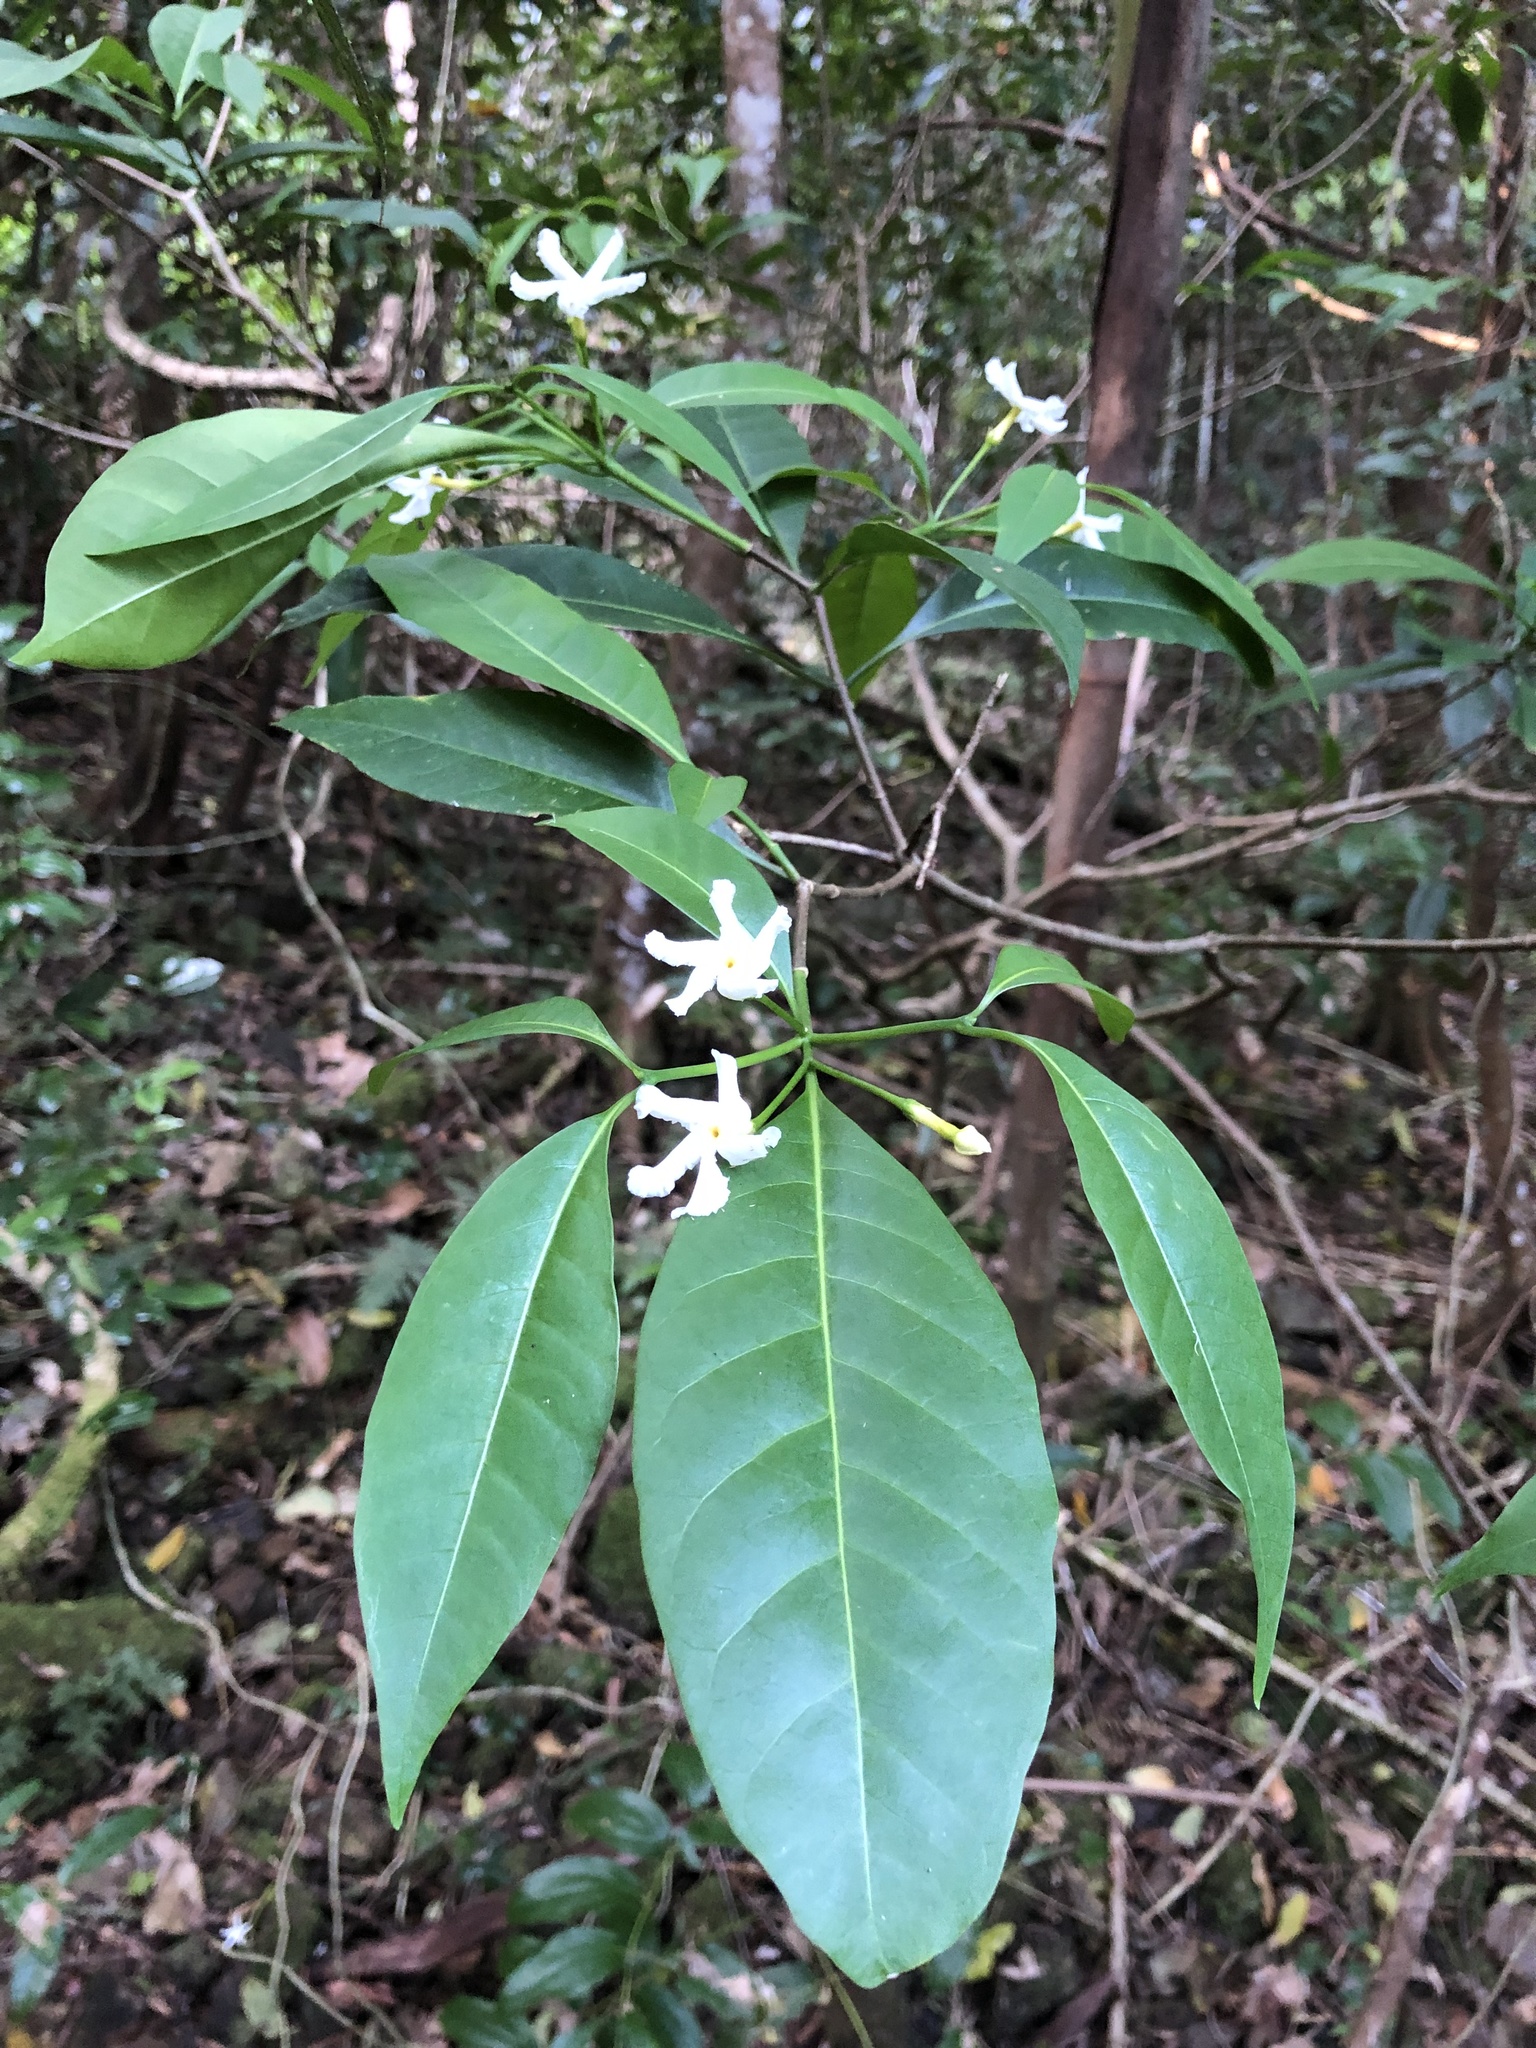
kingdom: Plantae
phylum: Tracheophyta
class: Magnoliopsida
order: Gentianales
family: Apocynaceae
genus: Tabernaemontana
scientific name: Tabernaemontana pandacaqui
